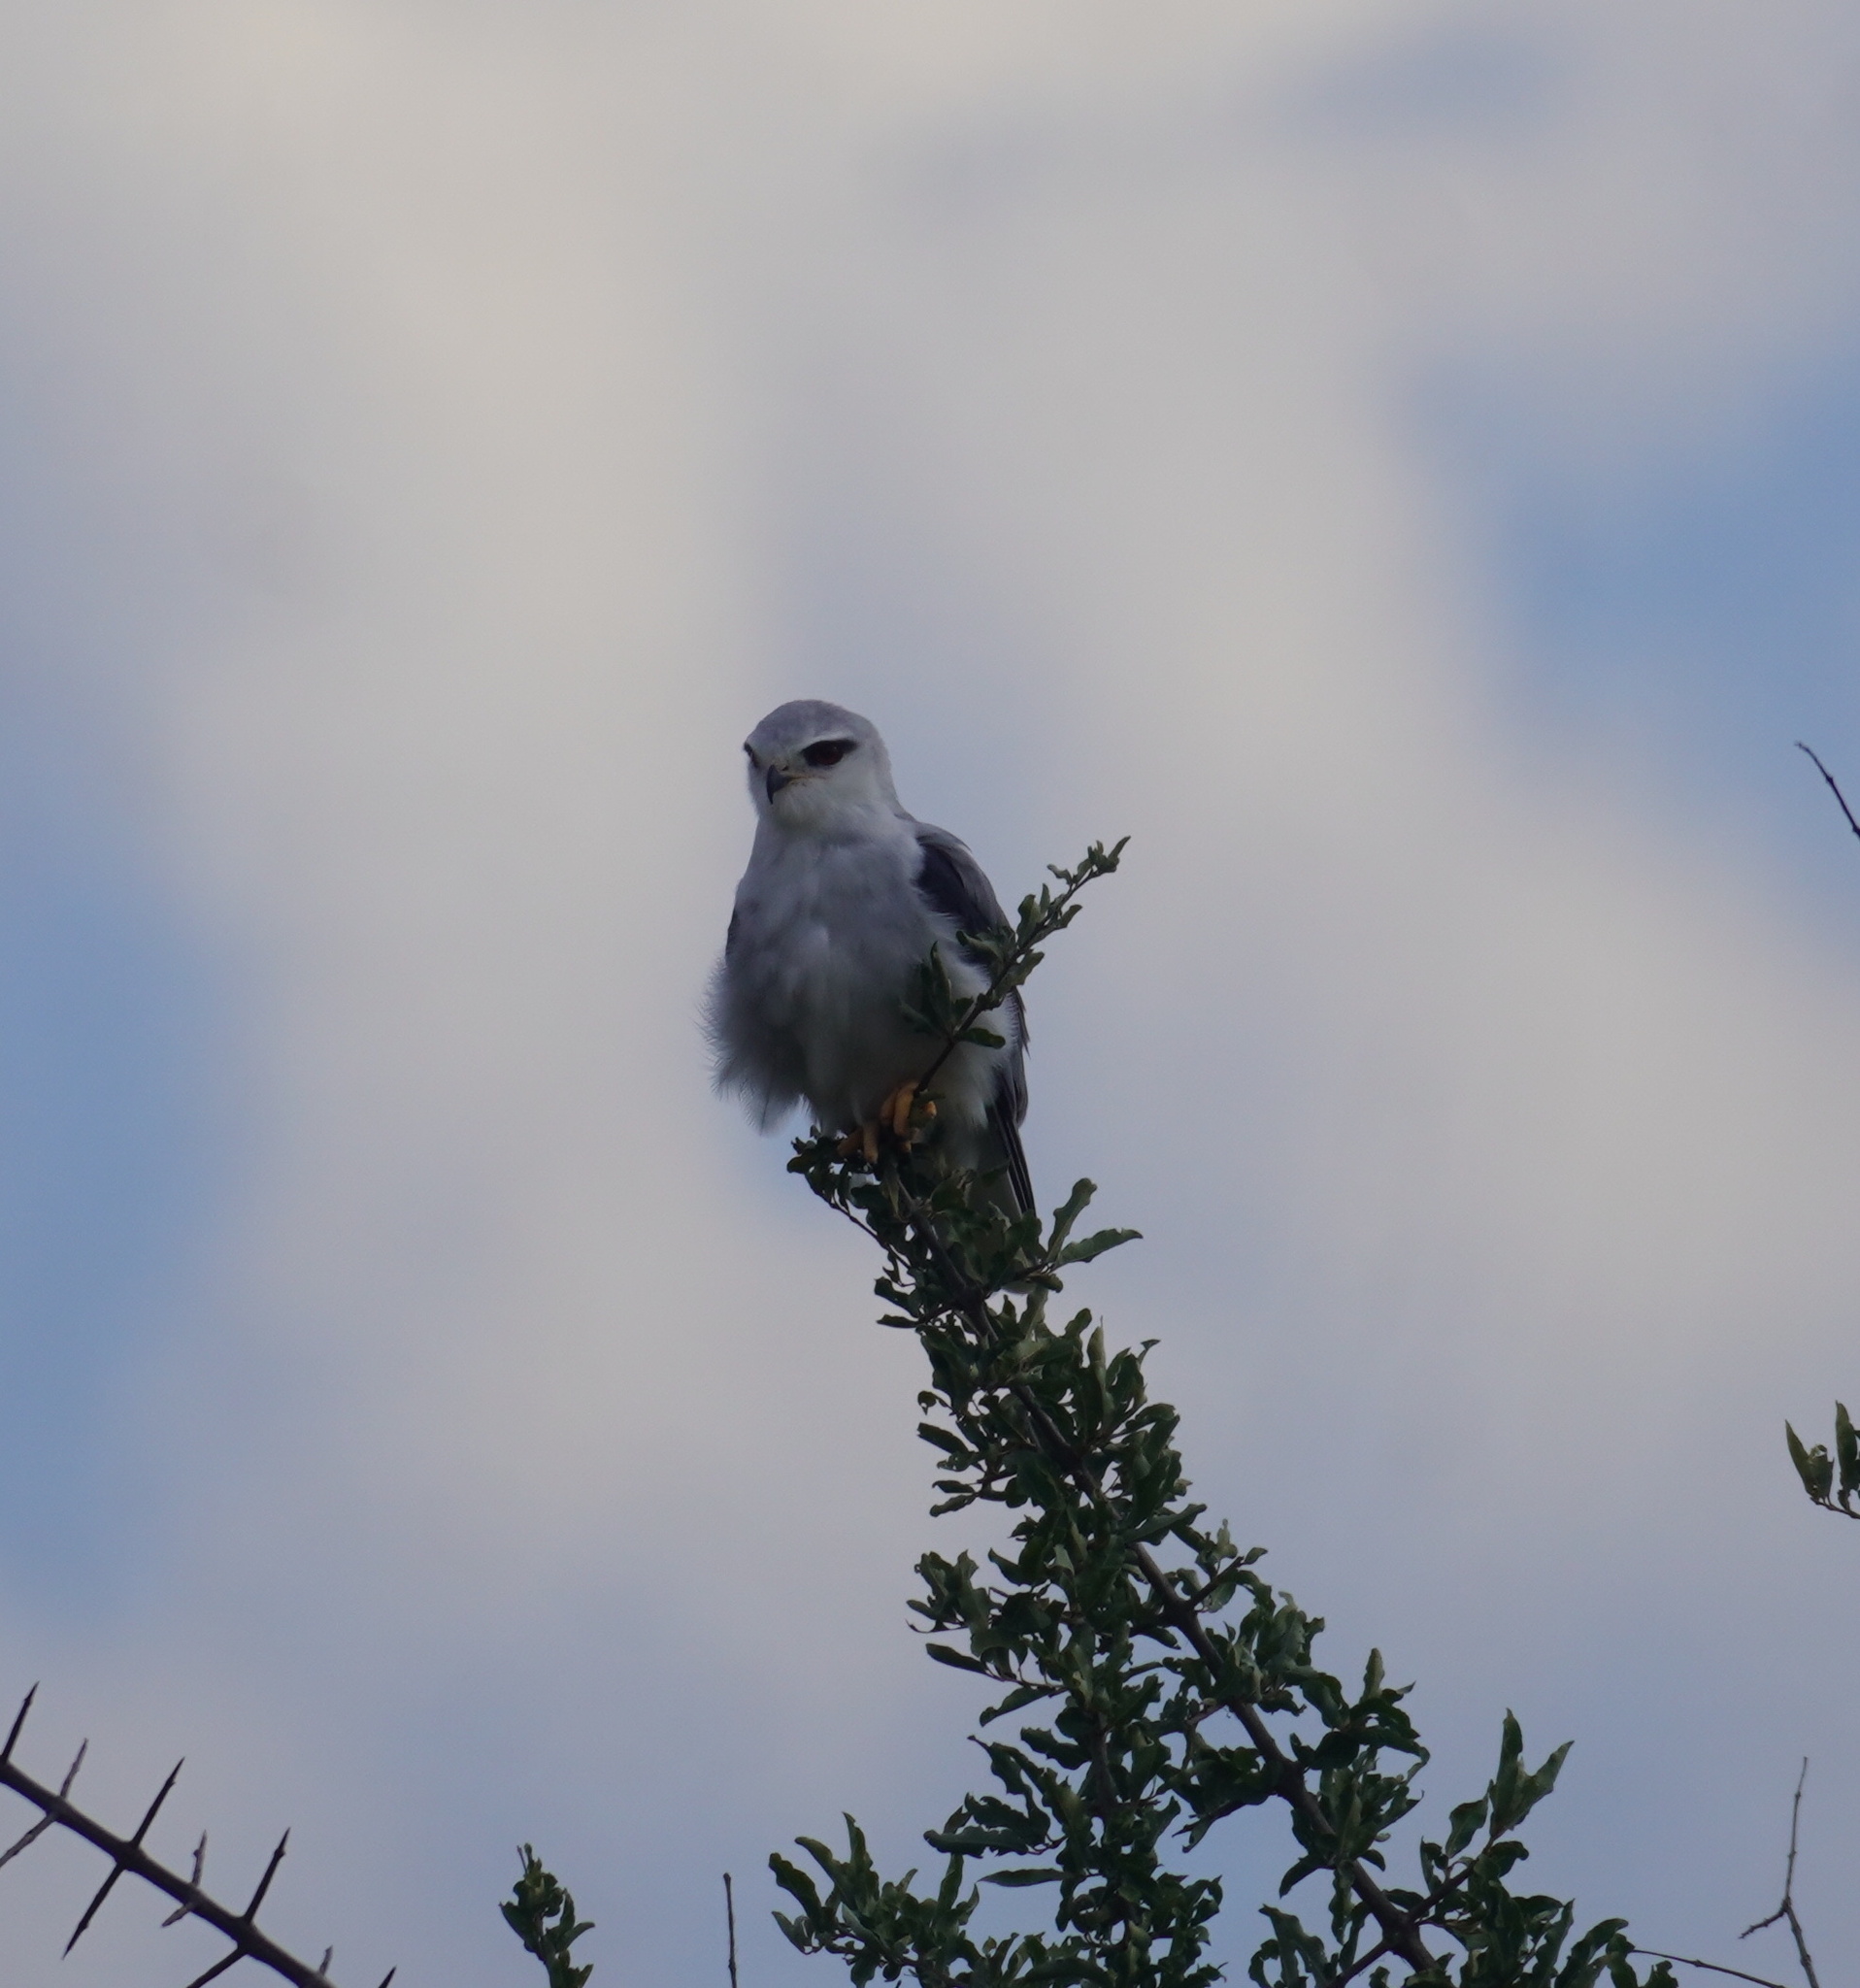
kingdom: Animalia
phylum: Chordata
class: Aves
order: Accipitriformes
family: Accipitridae
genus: Elanus
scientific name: Elanus caeruleus
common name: Black-winged kite
